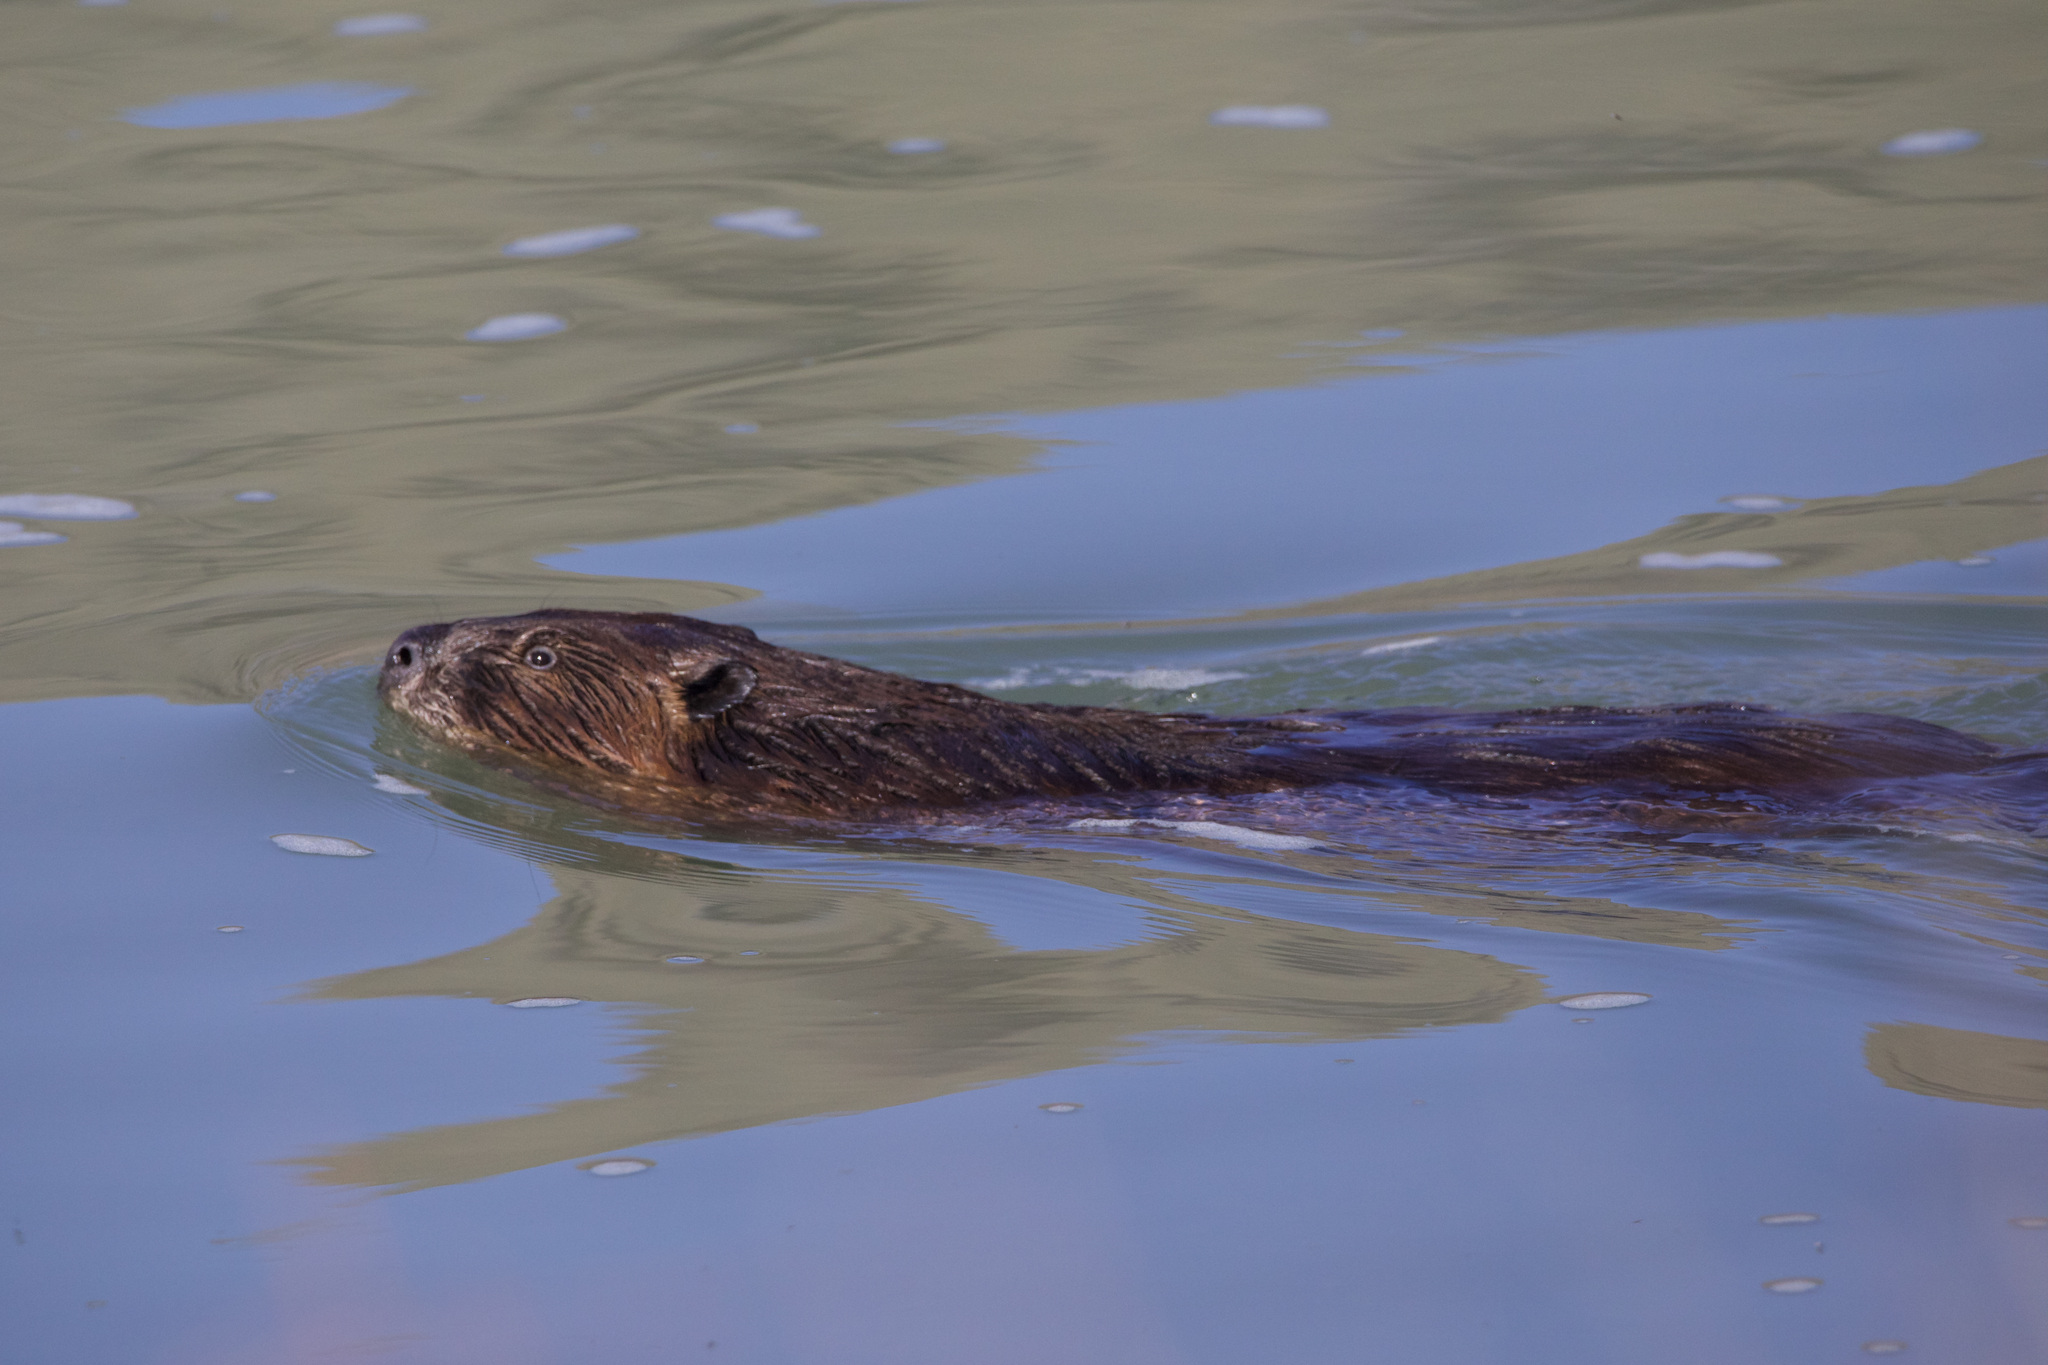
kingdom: Animalia
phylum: Chordata
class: Mammalia
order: Rodentia
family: Castoridae
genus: Castor
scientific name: Castor canadensis
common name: American beaver
